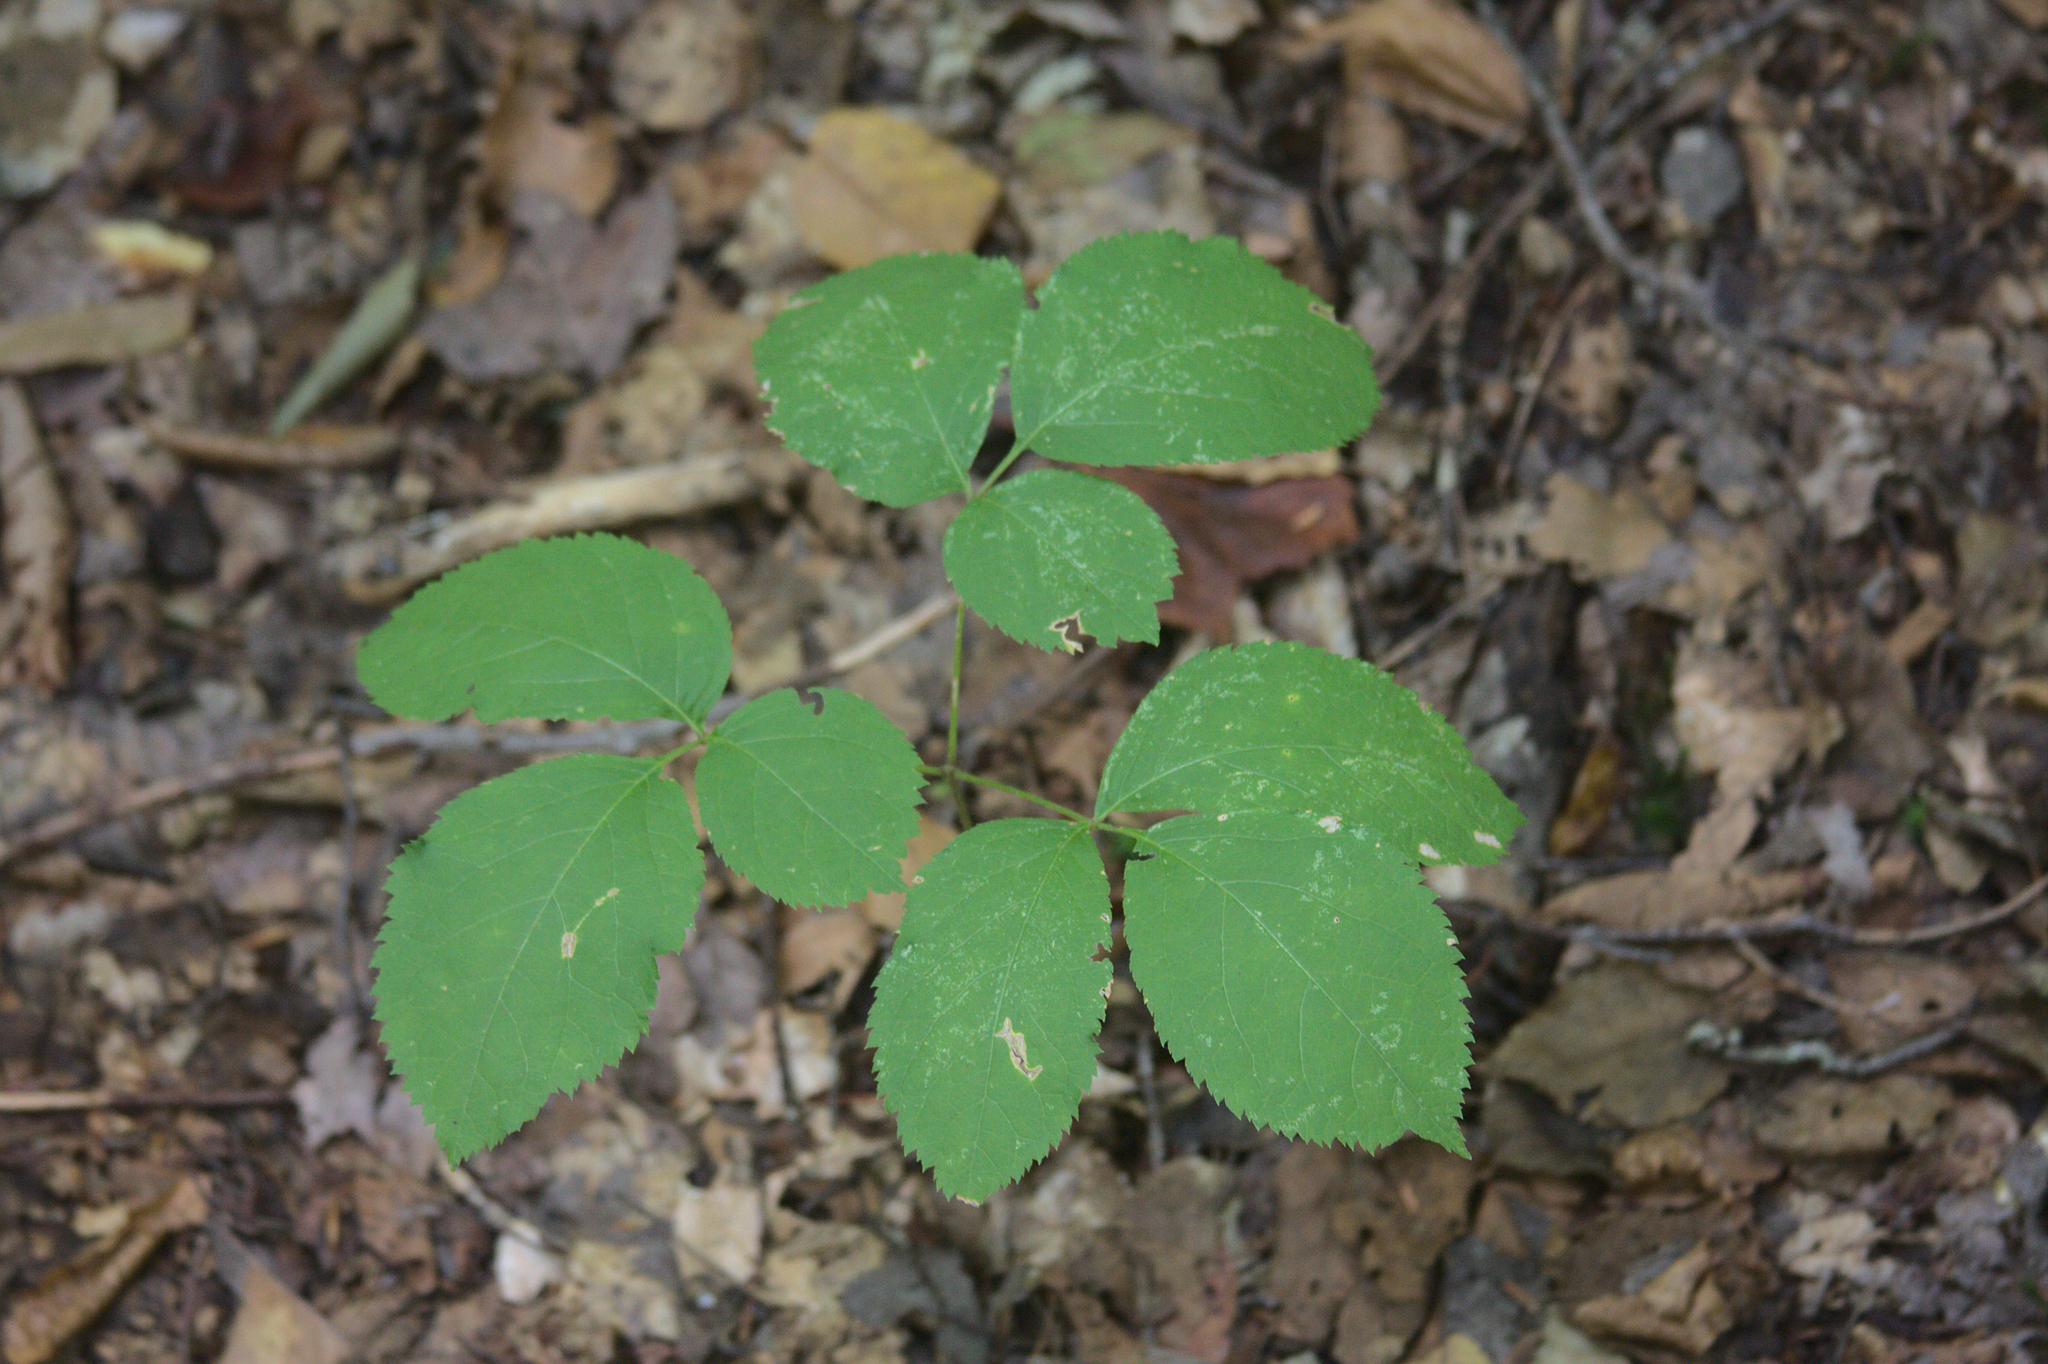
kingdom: Plantae
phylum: Tracheophyta
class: Magnoliopsida
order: Apiales
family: Araliaceae
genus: Aralia
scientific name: Aralia nudicaulis
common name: Wild sarsaparilla
